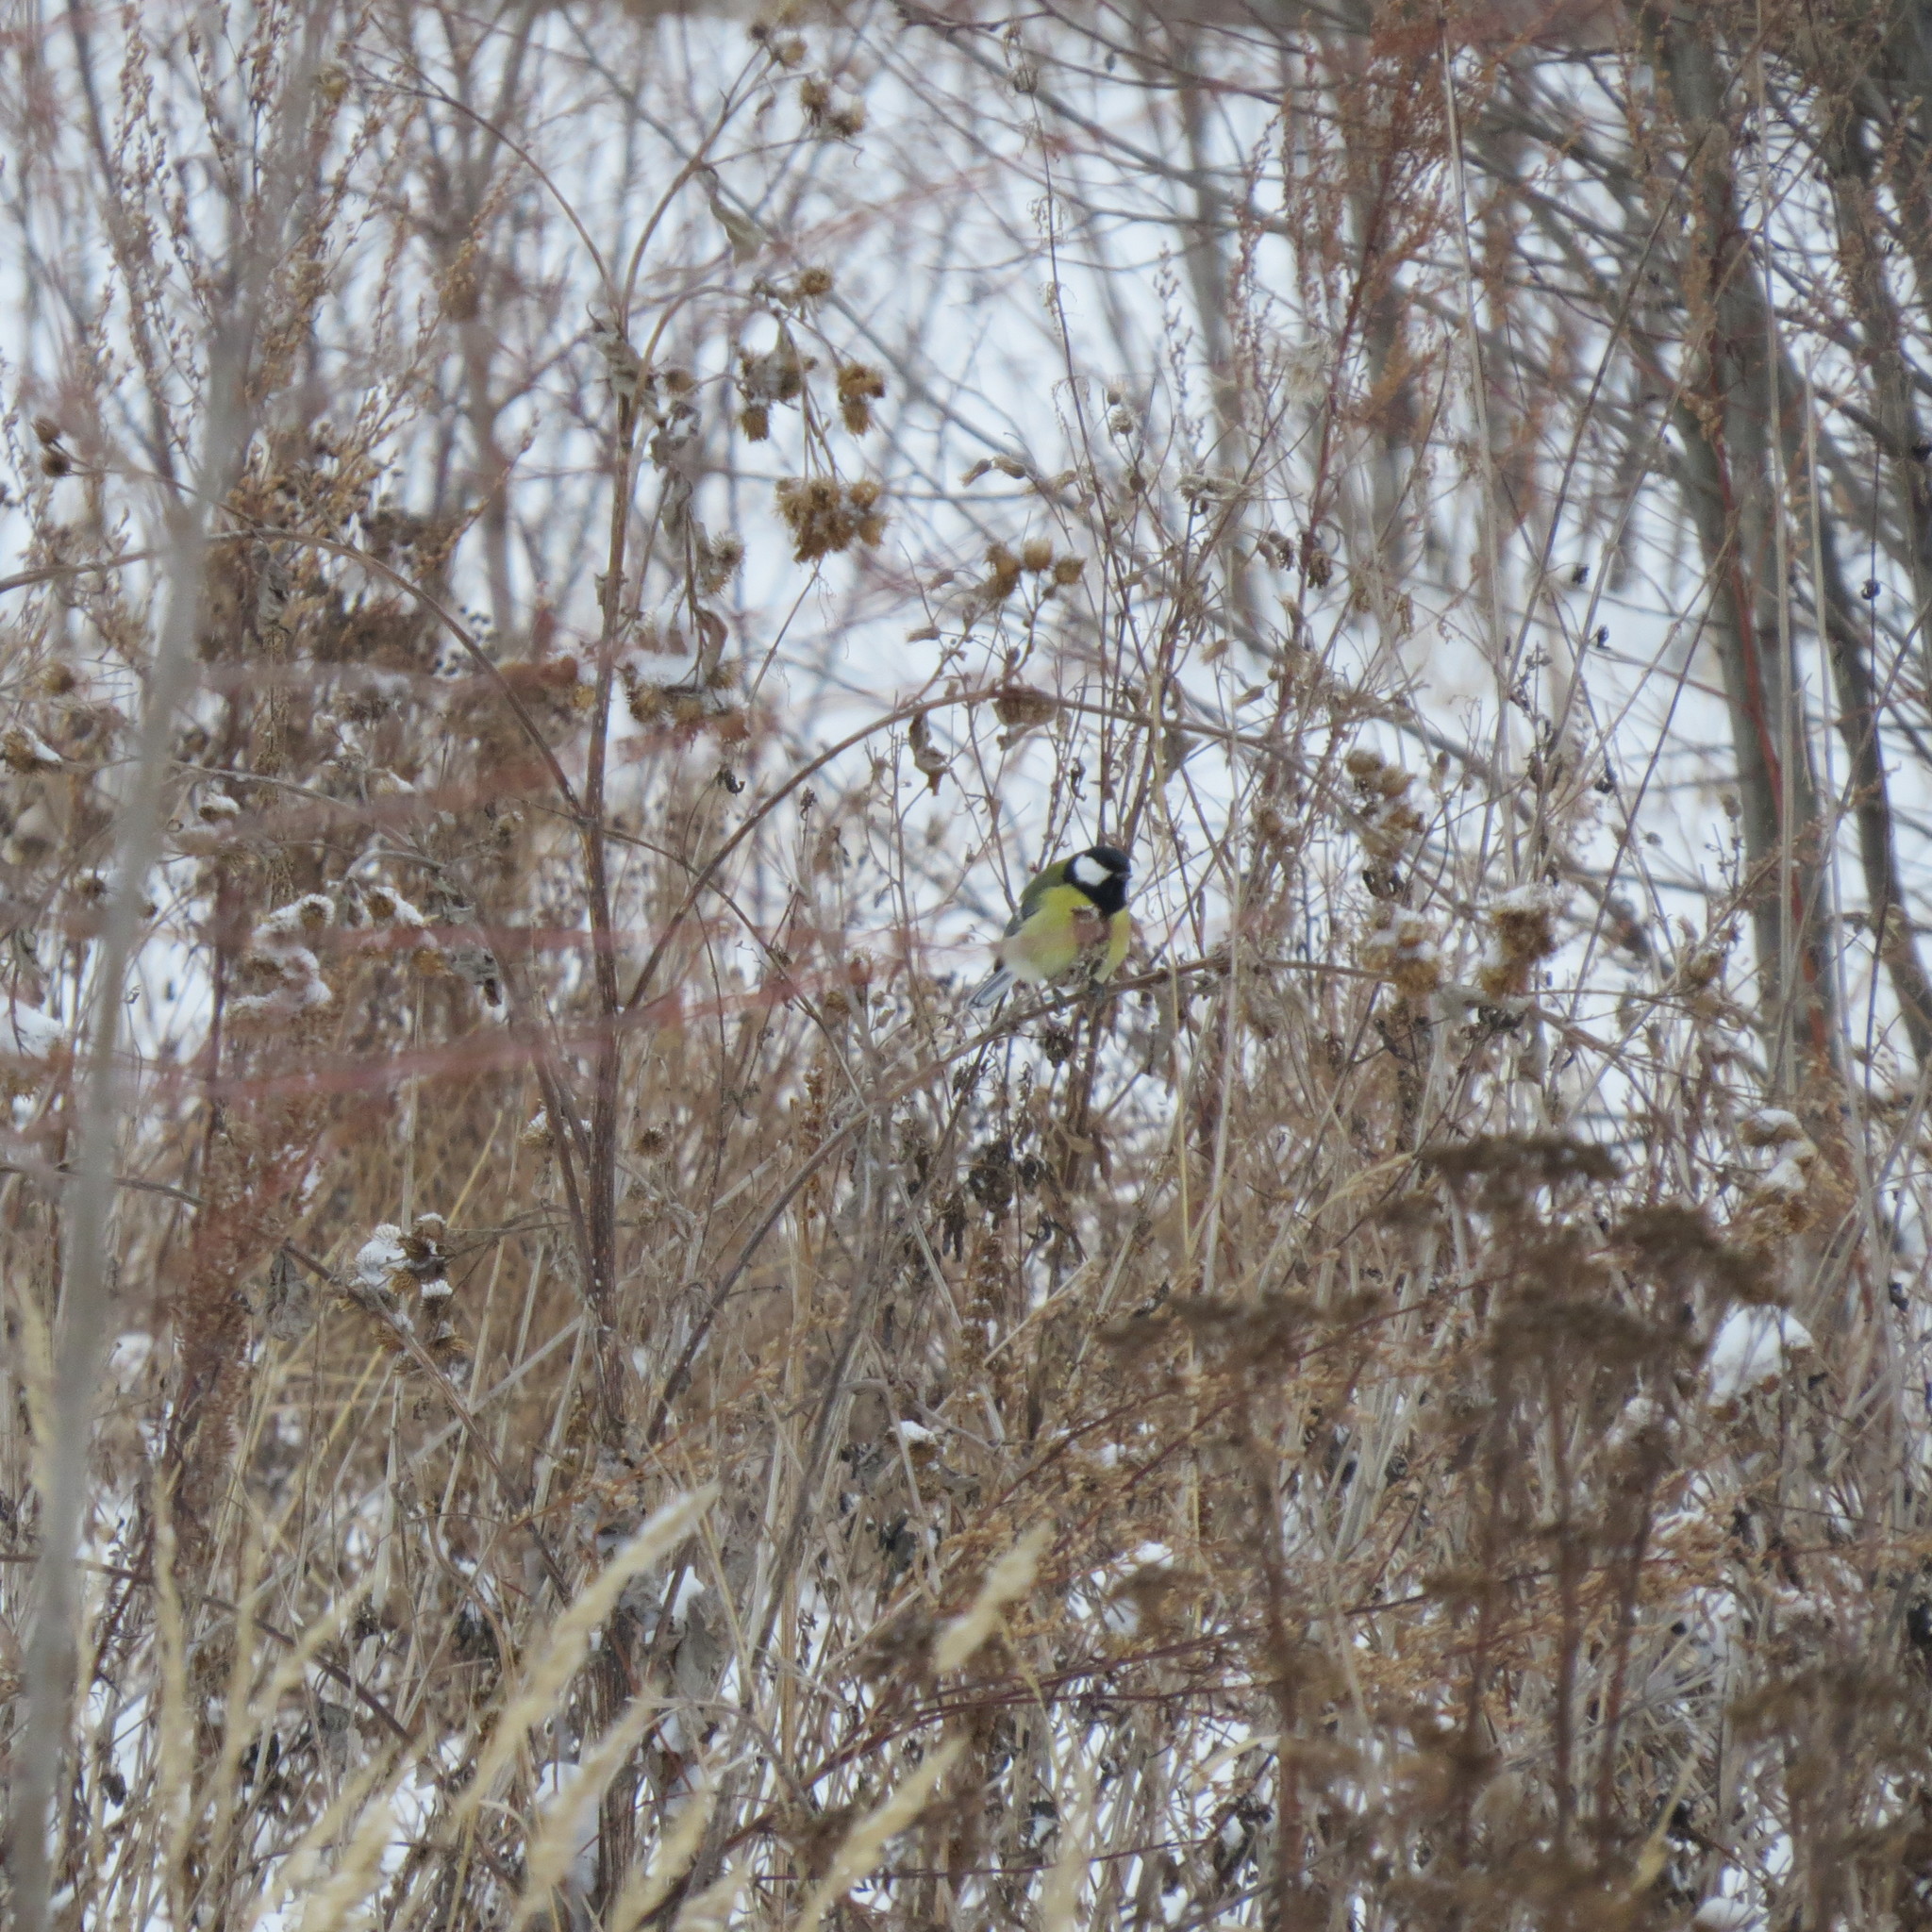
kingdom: Animalia
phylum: Chordata
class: Aves
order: Passeriformes
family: Paridae
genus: Parus
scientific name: Parus major
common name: Great tit
